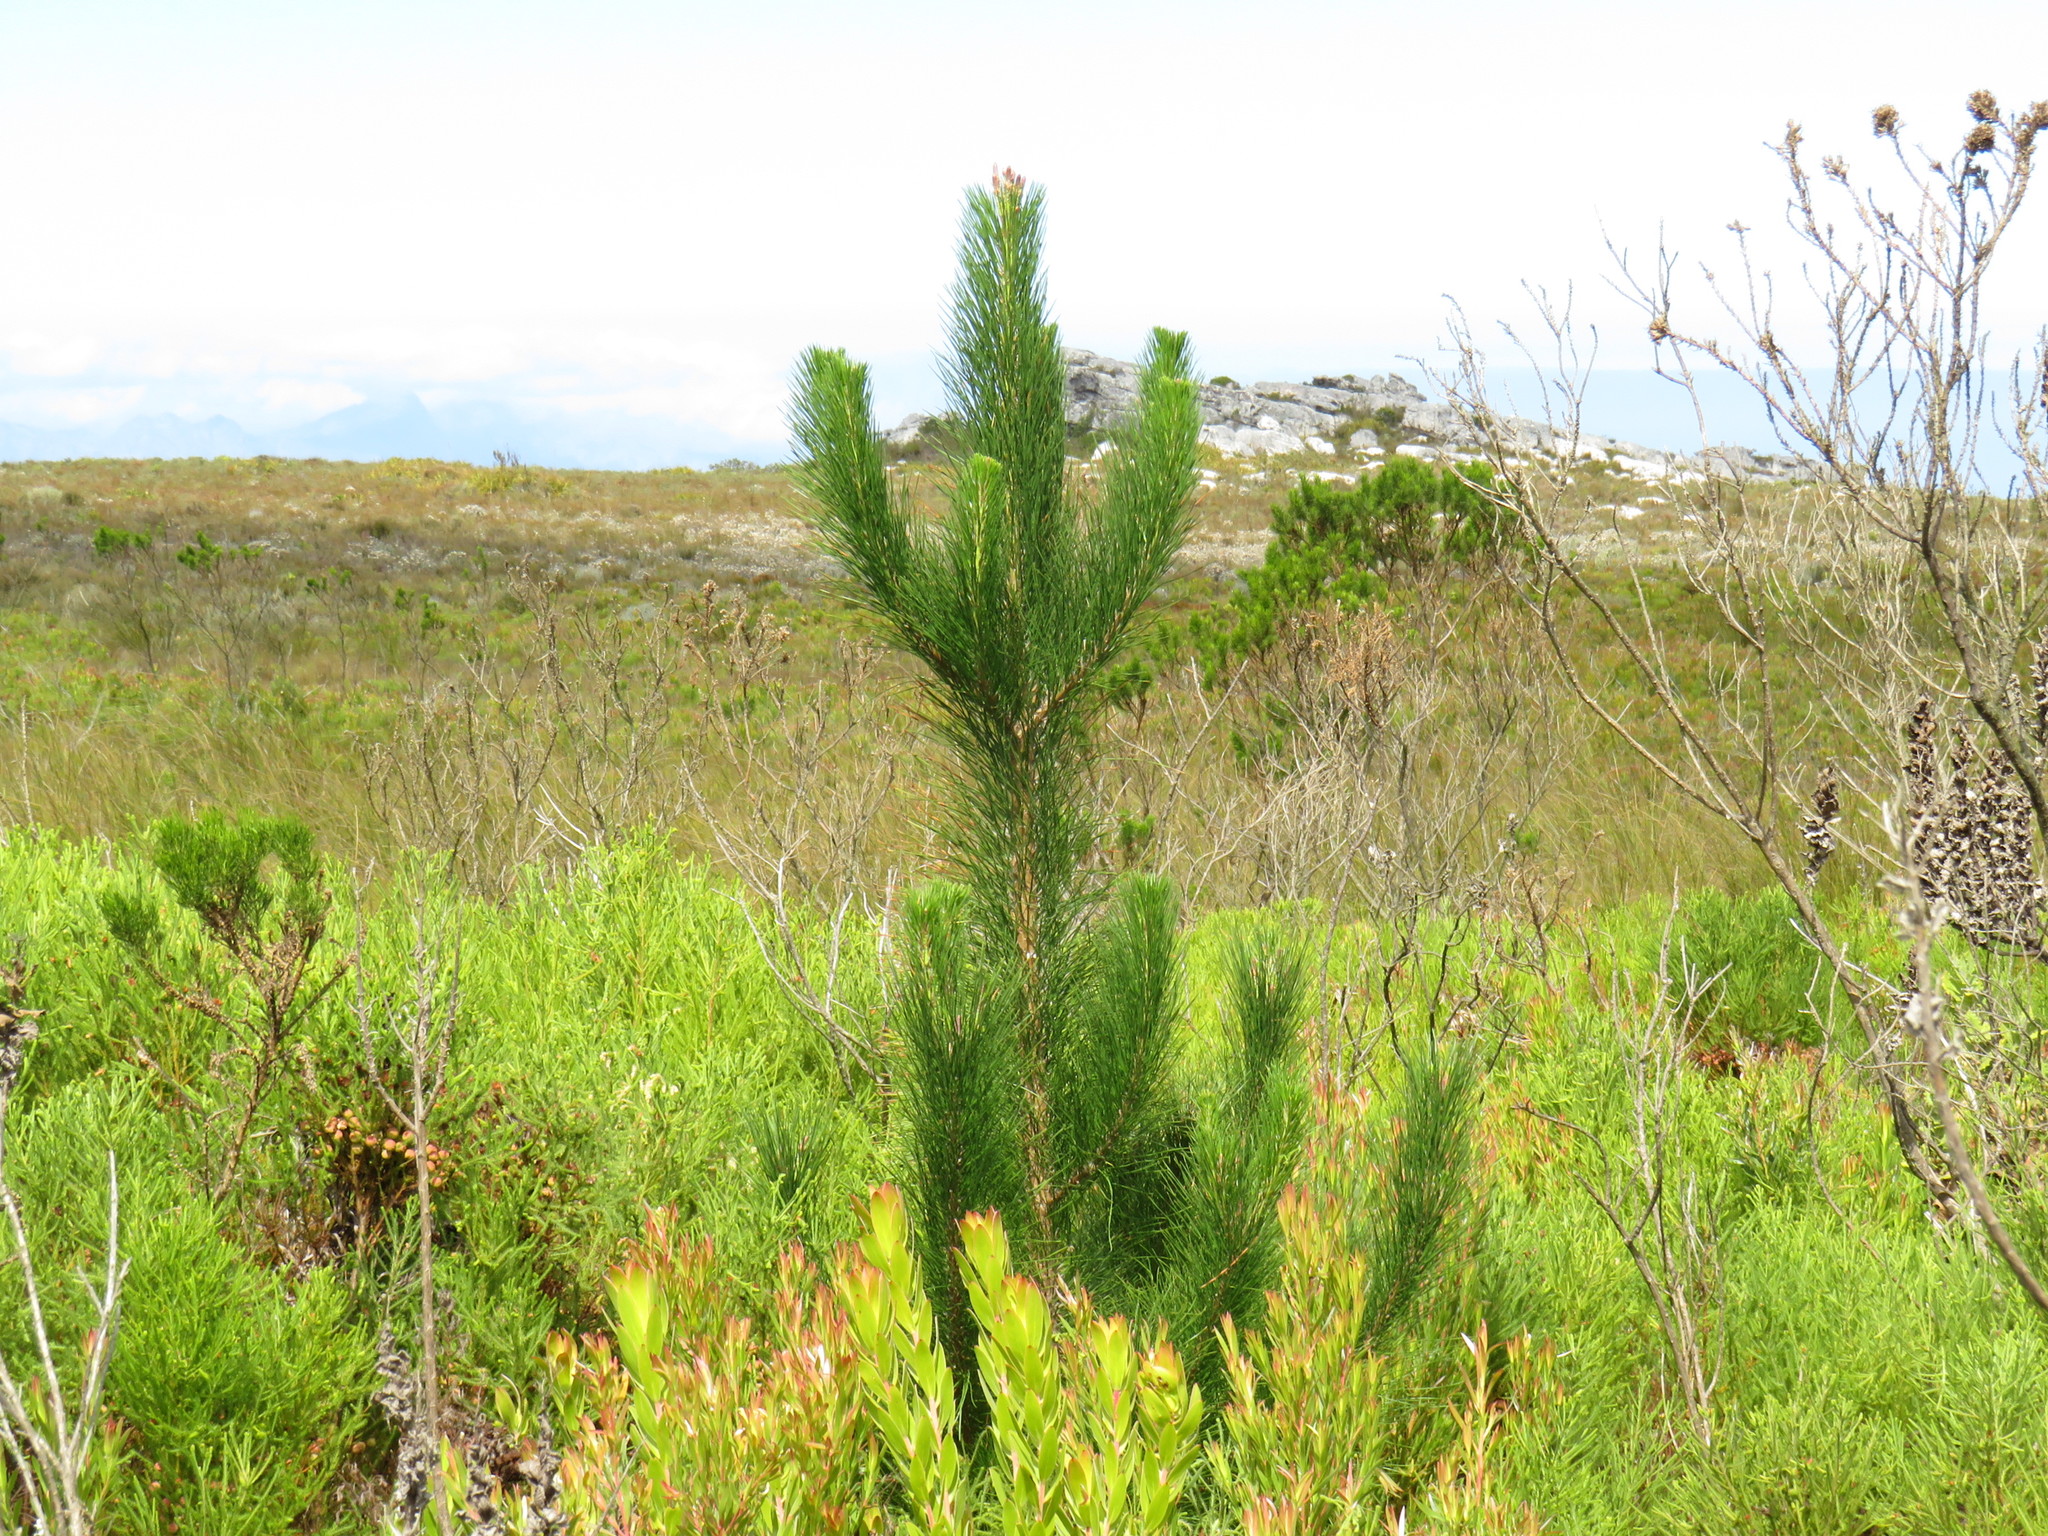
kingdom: Plantae
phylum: Tracheophyta
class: Pinopsida
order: Pinales
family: Pinaceae
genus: Pinus
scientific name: Pinus radiata
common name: Monterey pine
